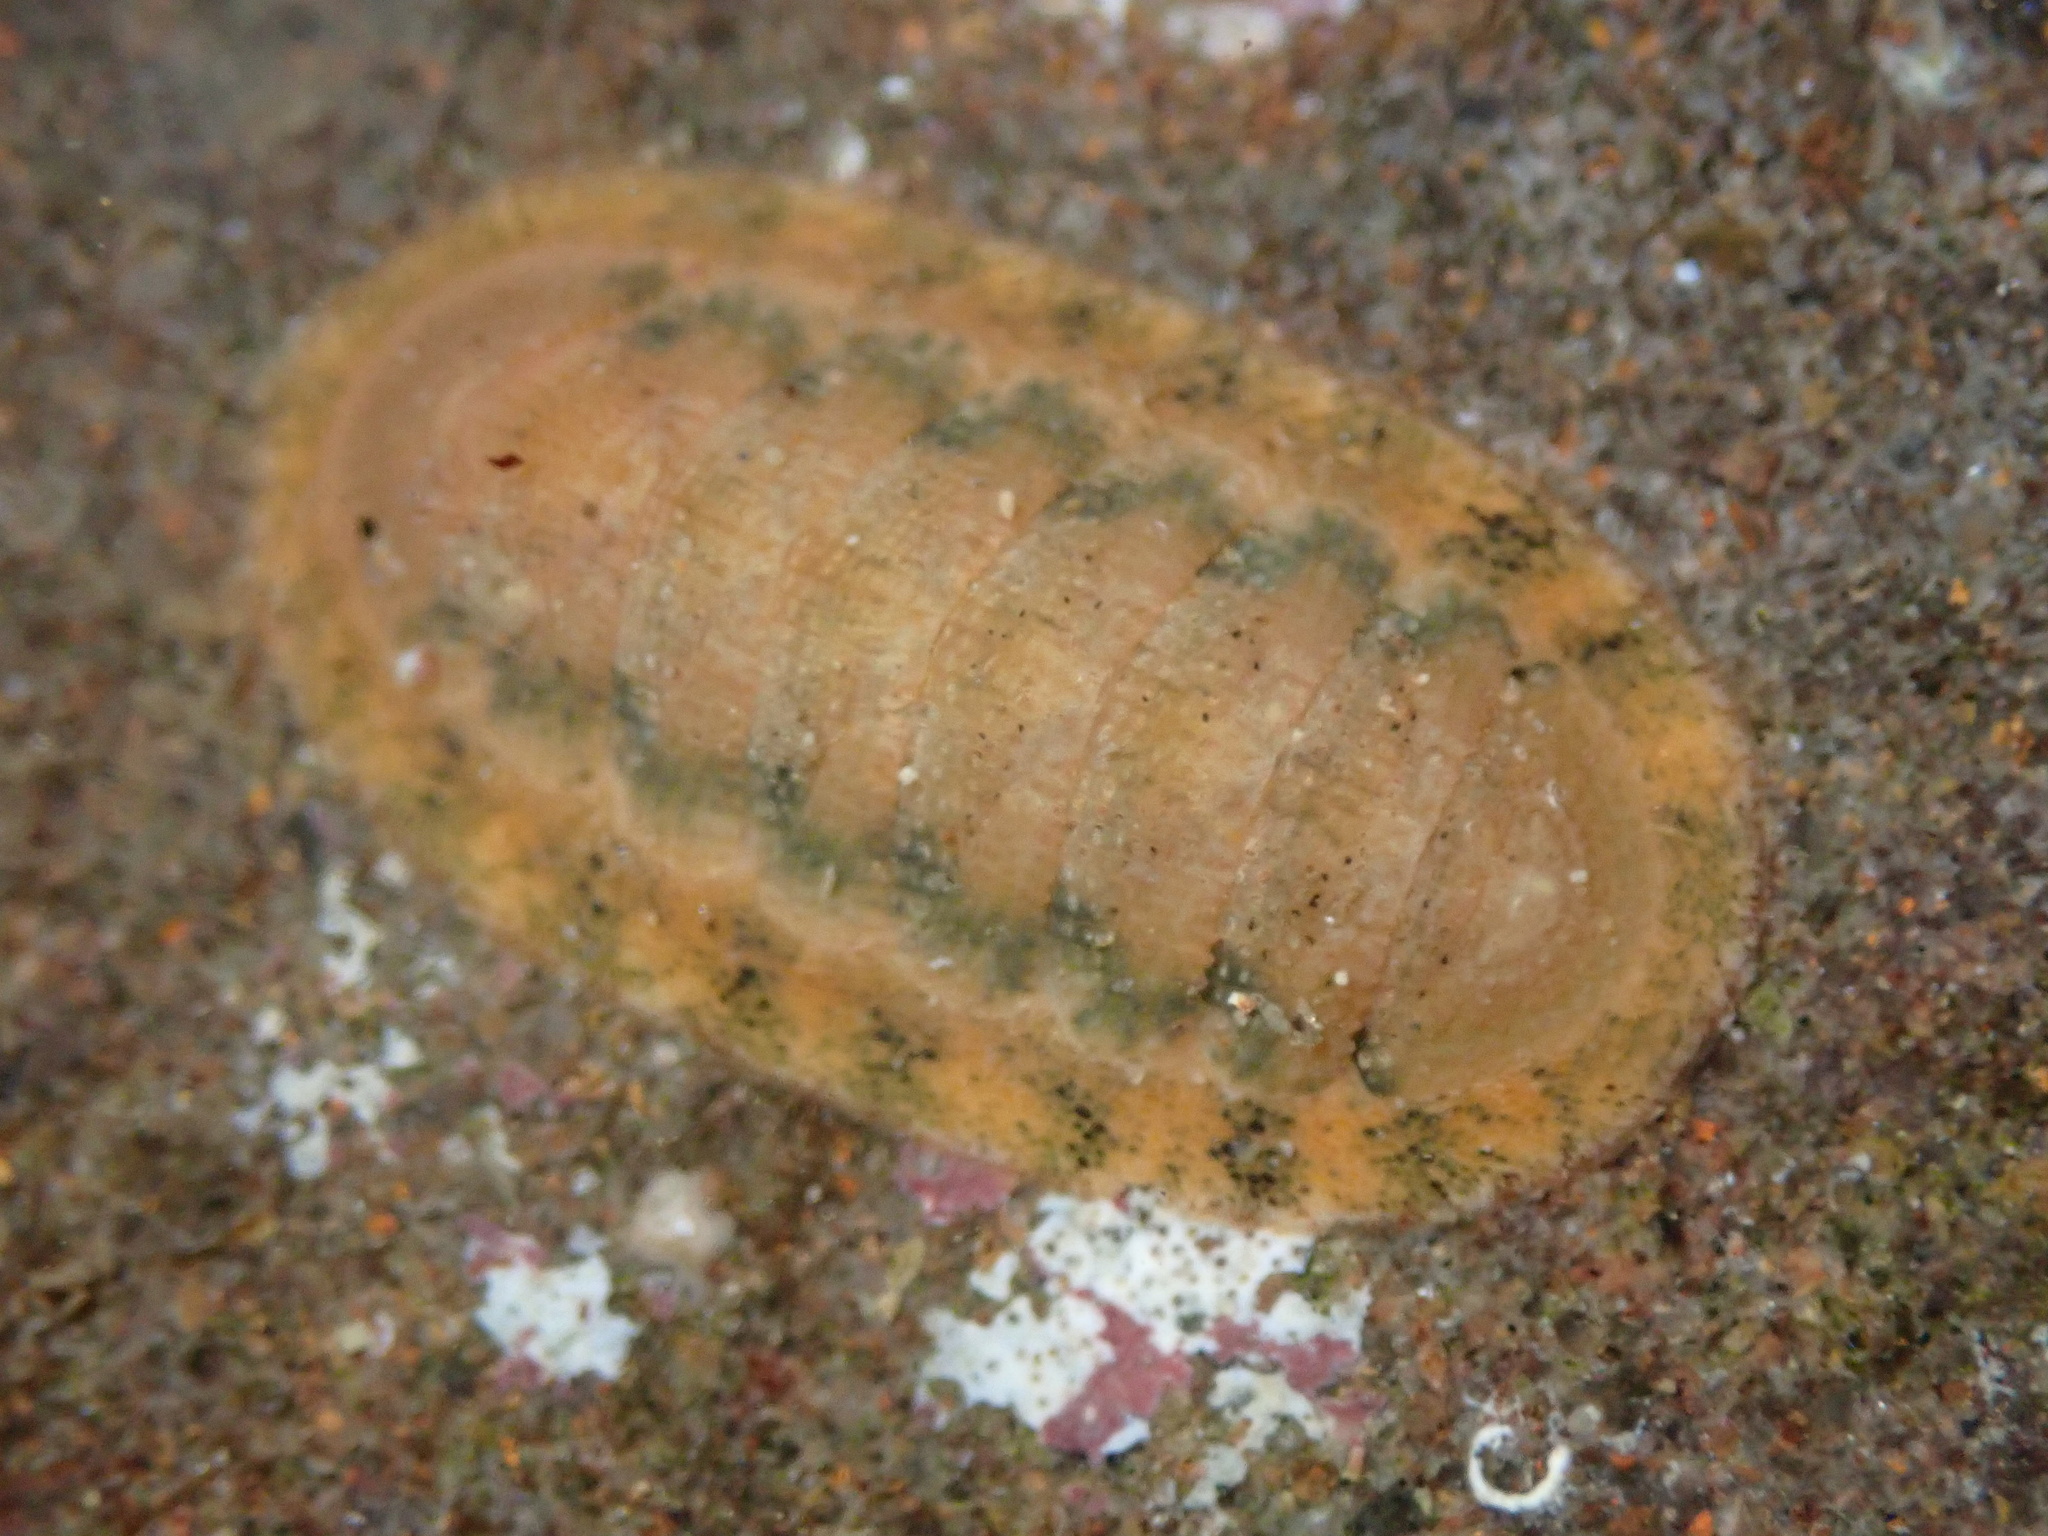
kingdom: Animalia
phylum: Mollusca
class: Polyplacophora
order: Chitonida
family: Ischnochitonidae
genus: Lepidozona
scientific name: Lepidozona pectinulata
